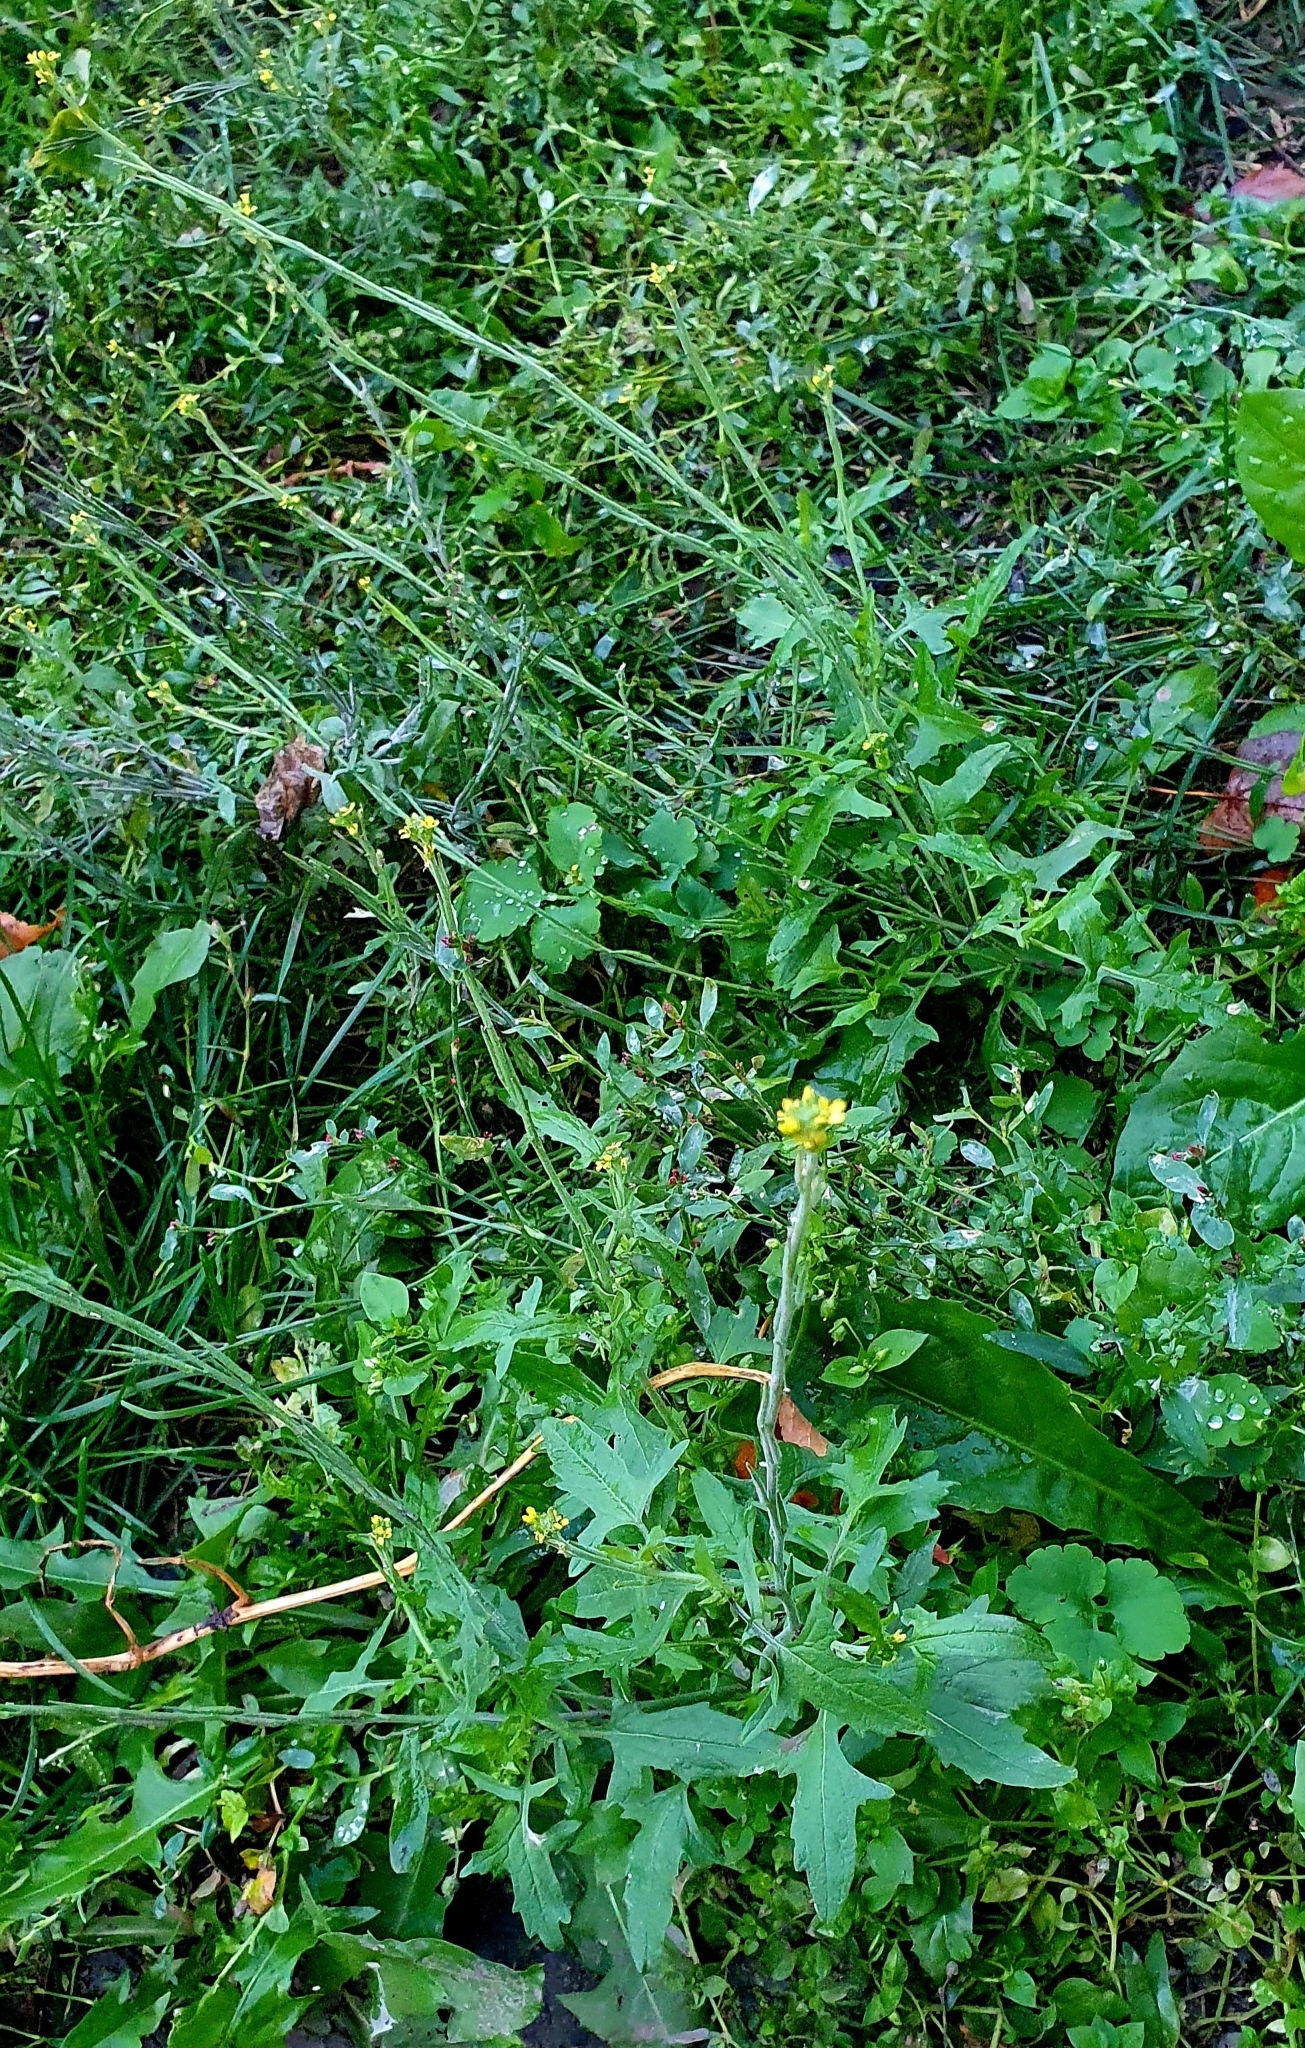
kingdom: Plantae
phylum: Tracheophyta
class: Magnoliopsida
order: Brassicales
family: Brassicaceae
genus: Sisymbrium
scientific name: Sisymbrium officinale
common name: Hedge mustard
